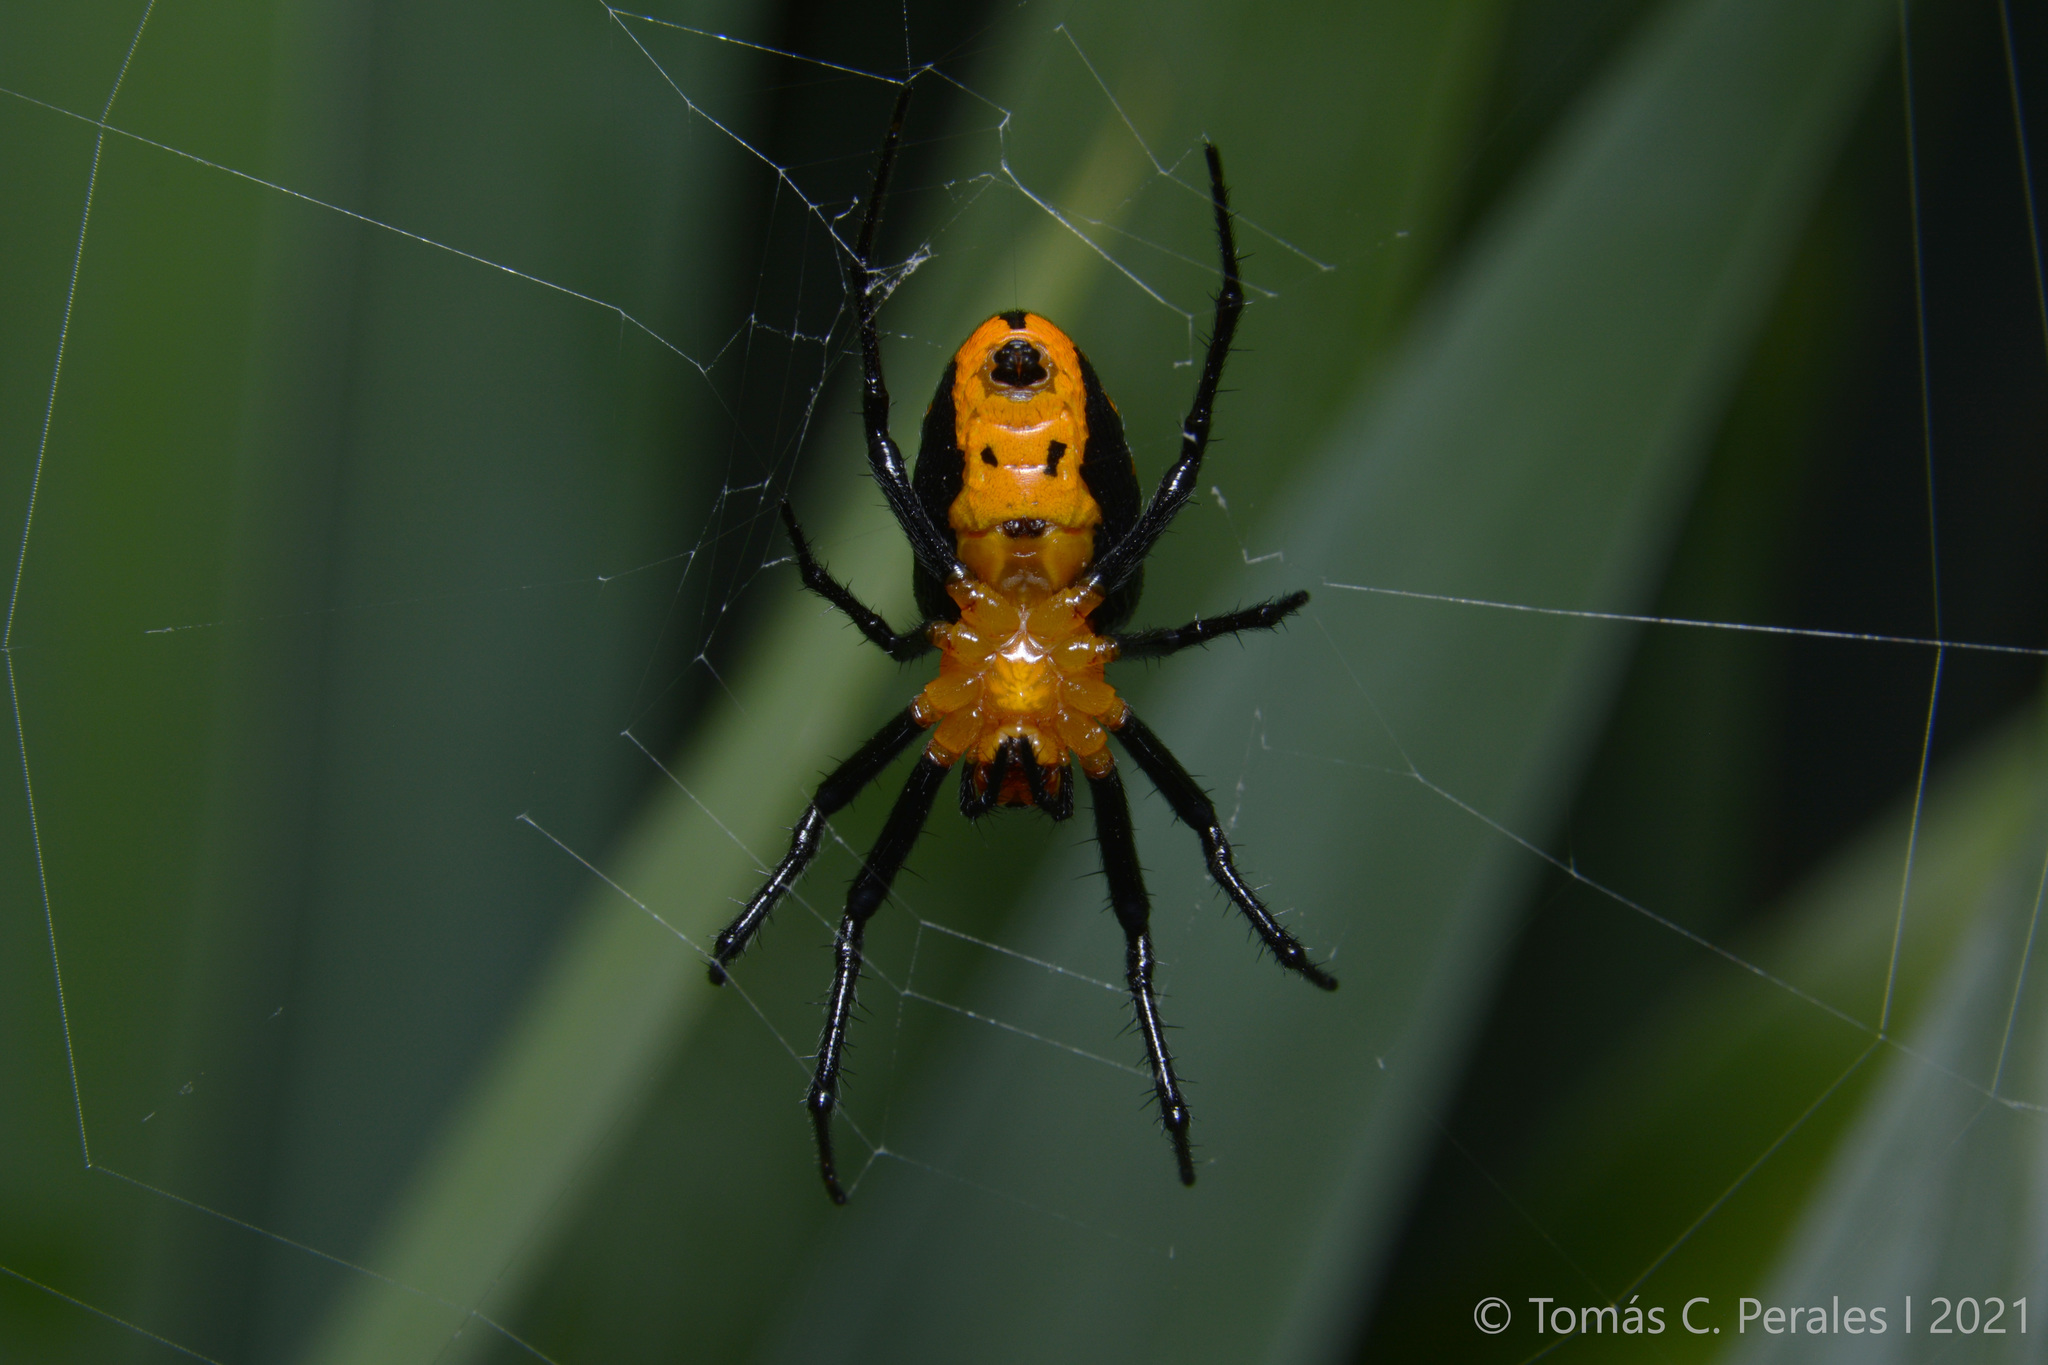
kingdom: Animalia
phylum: Arthropoda
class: Arachnida
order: Araneae
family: Araneidae
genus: Alpaida
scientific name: Alpaida latro
